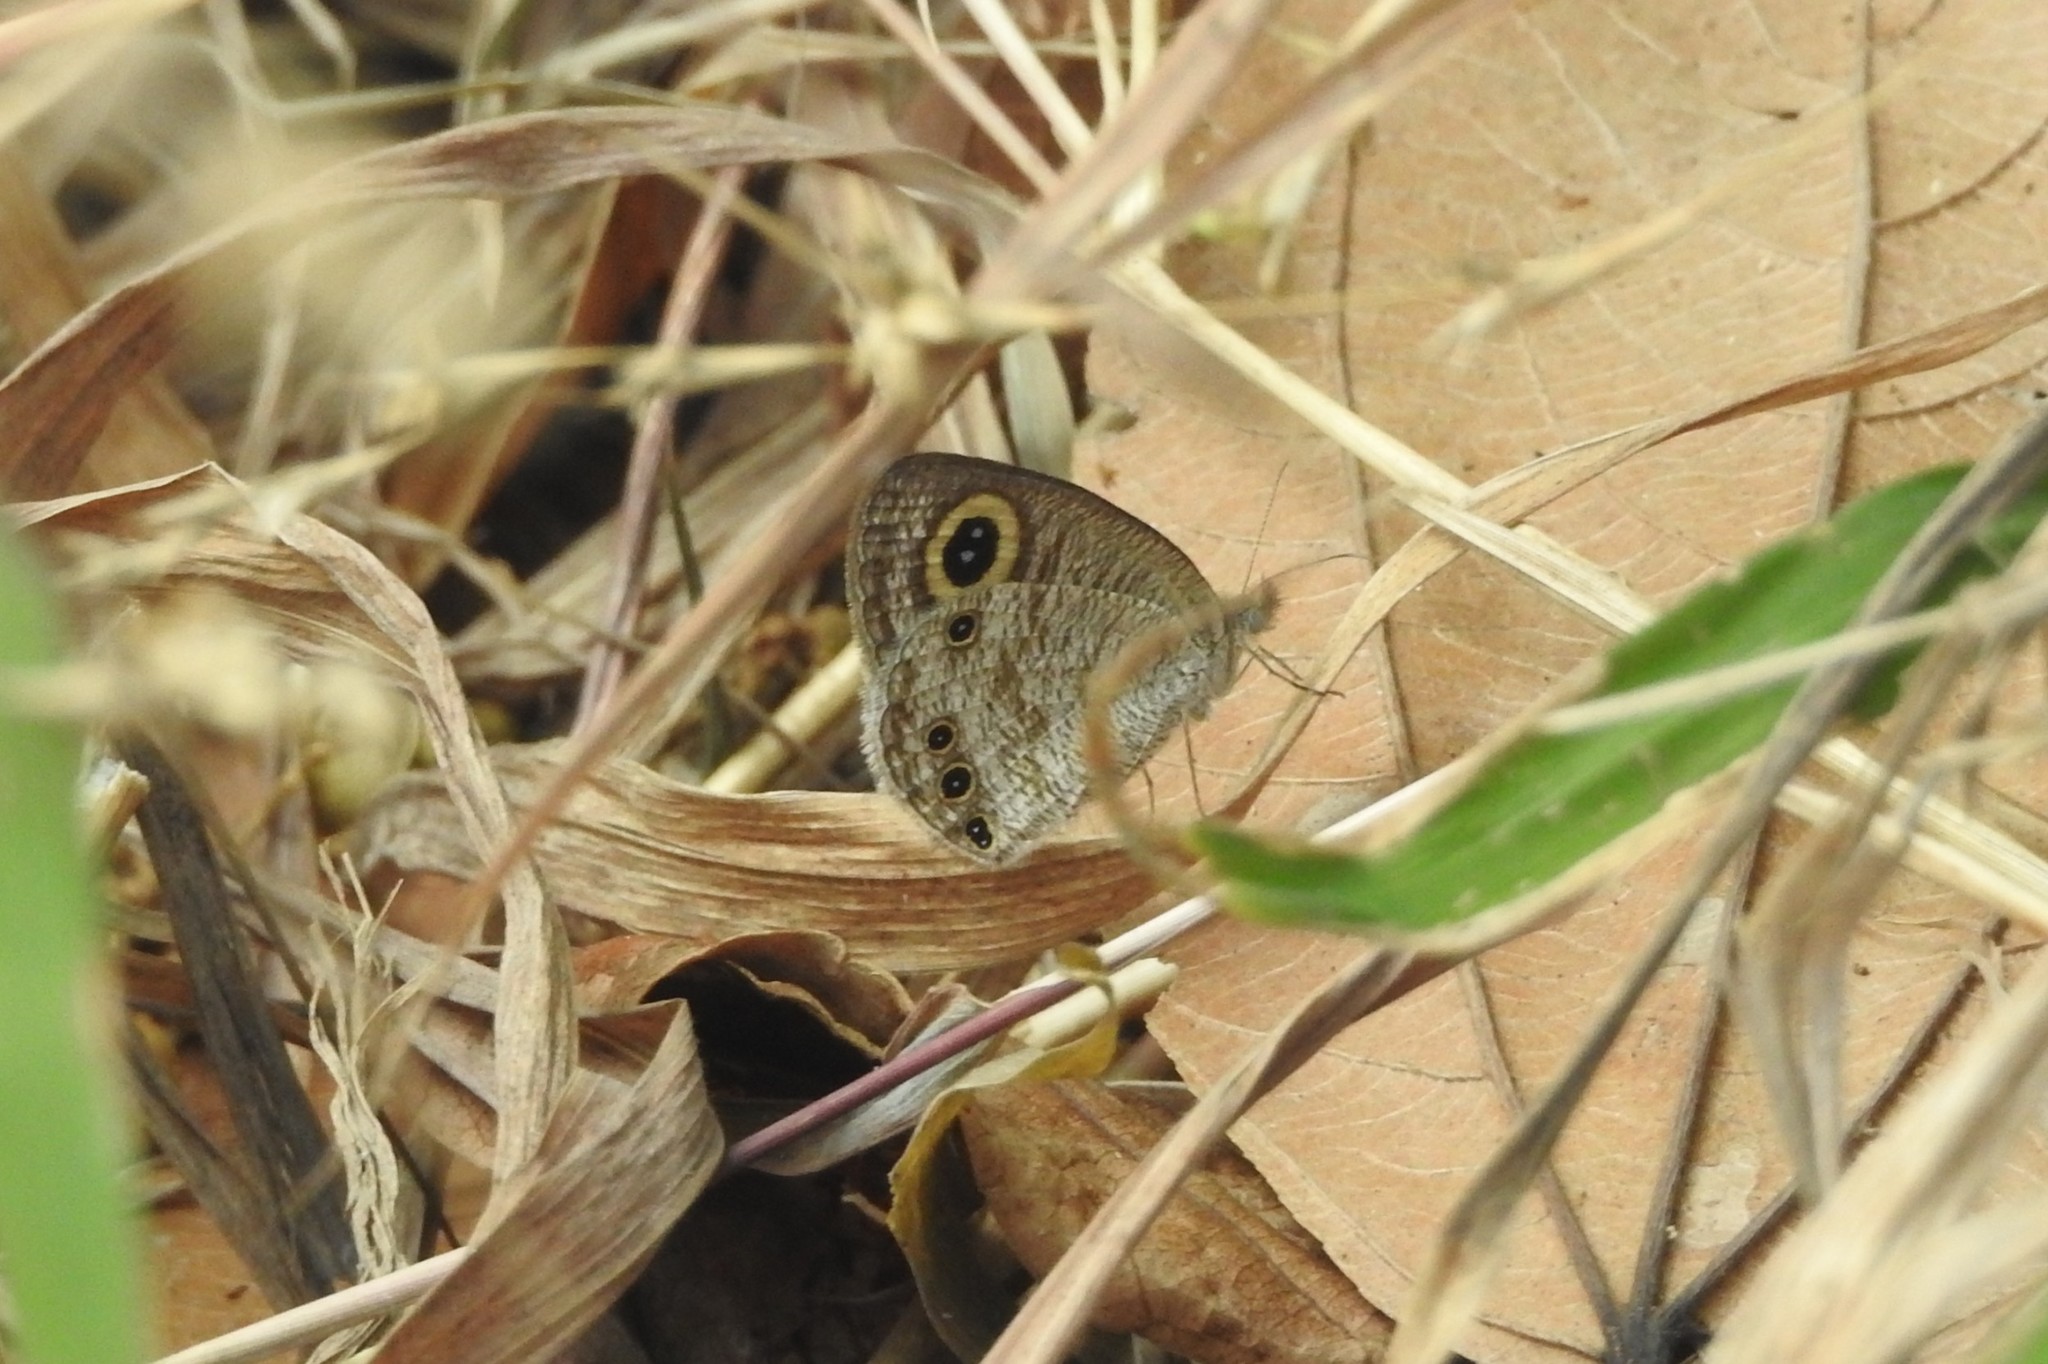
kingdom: Animalia
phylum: Arthropoda
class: Insecta
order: Lepidoptera
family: Nymphalidae
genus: Ypthima
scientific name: Ypthima huebneri
